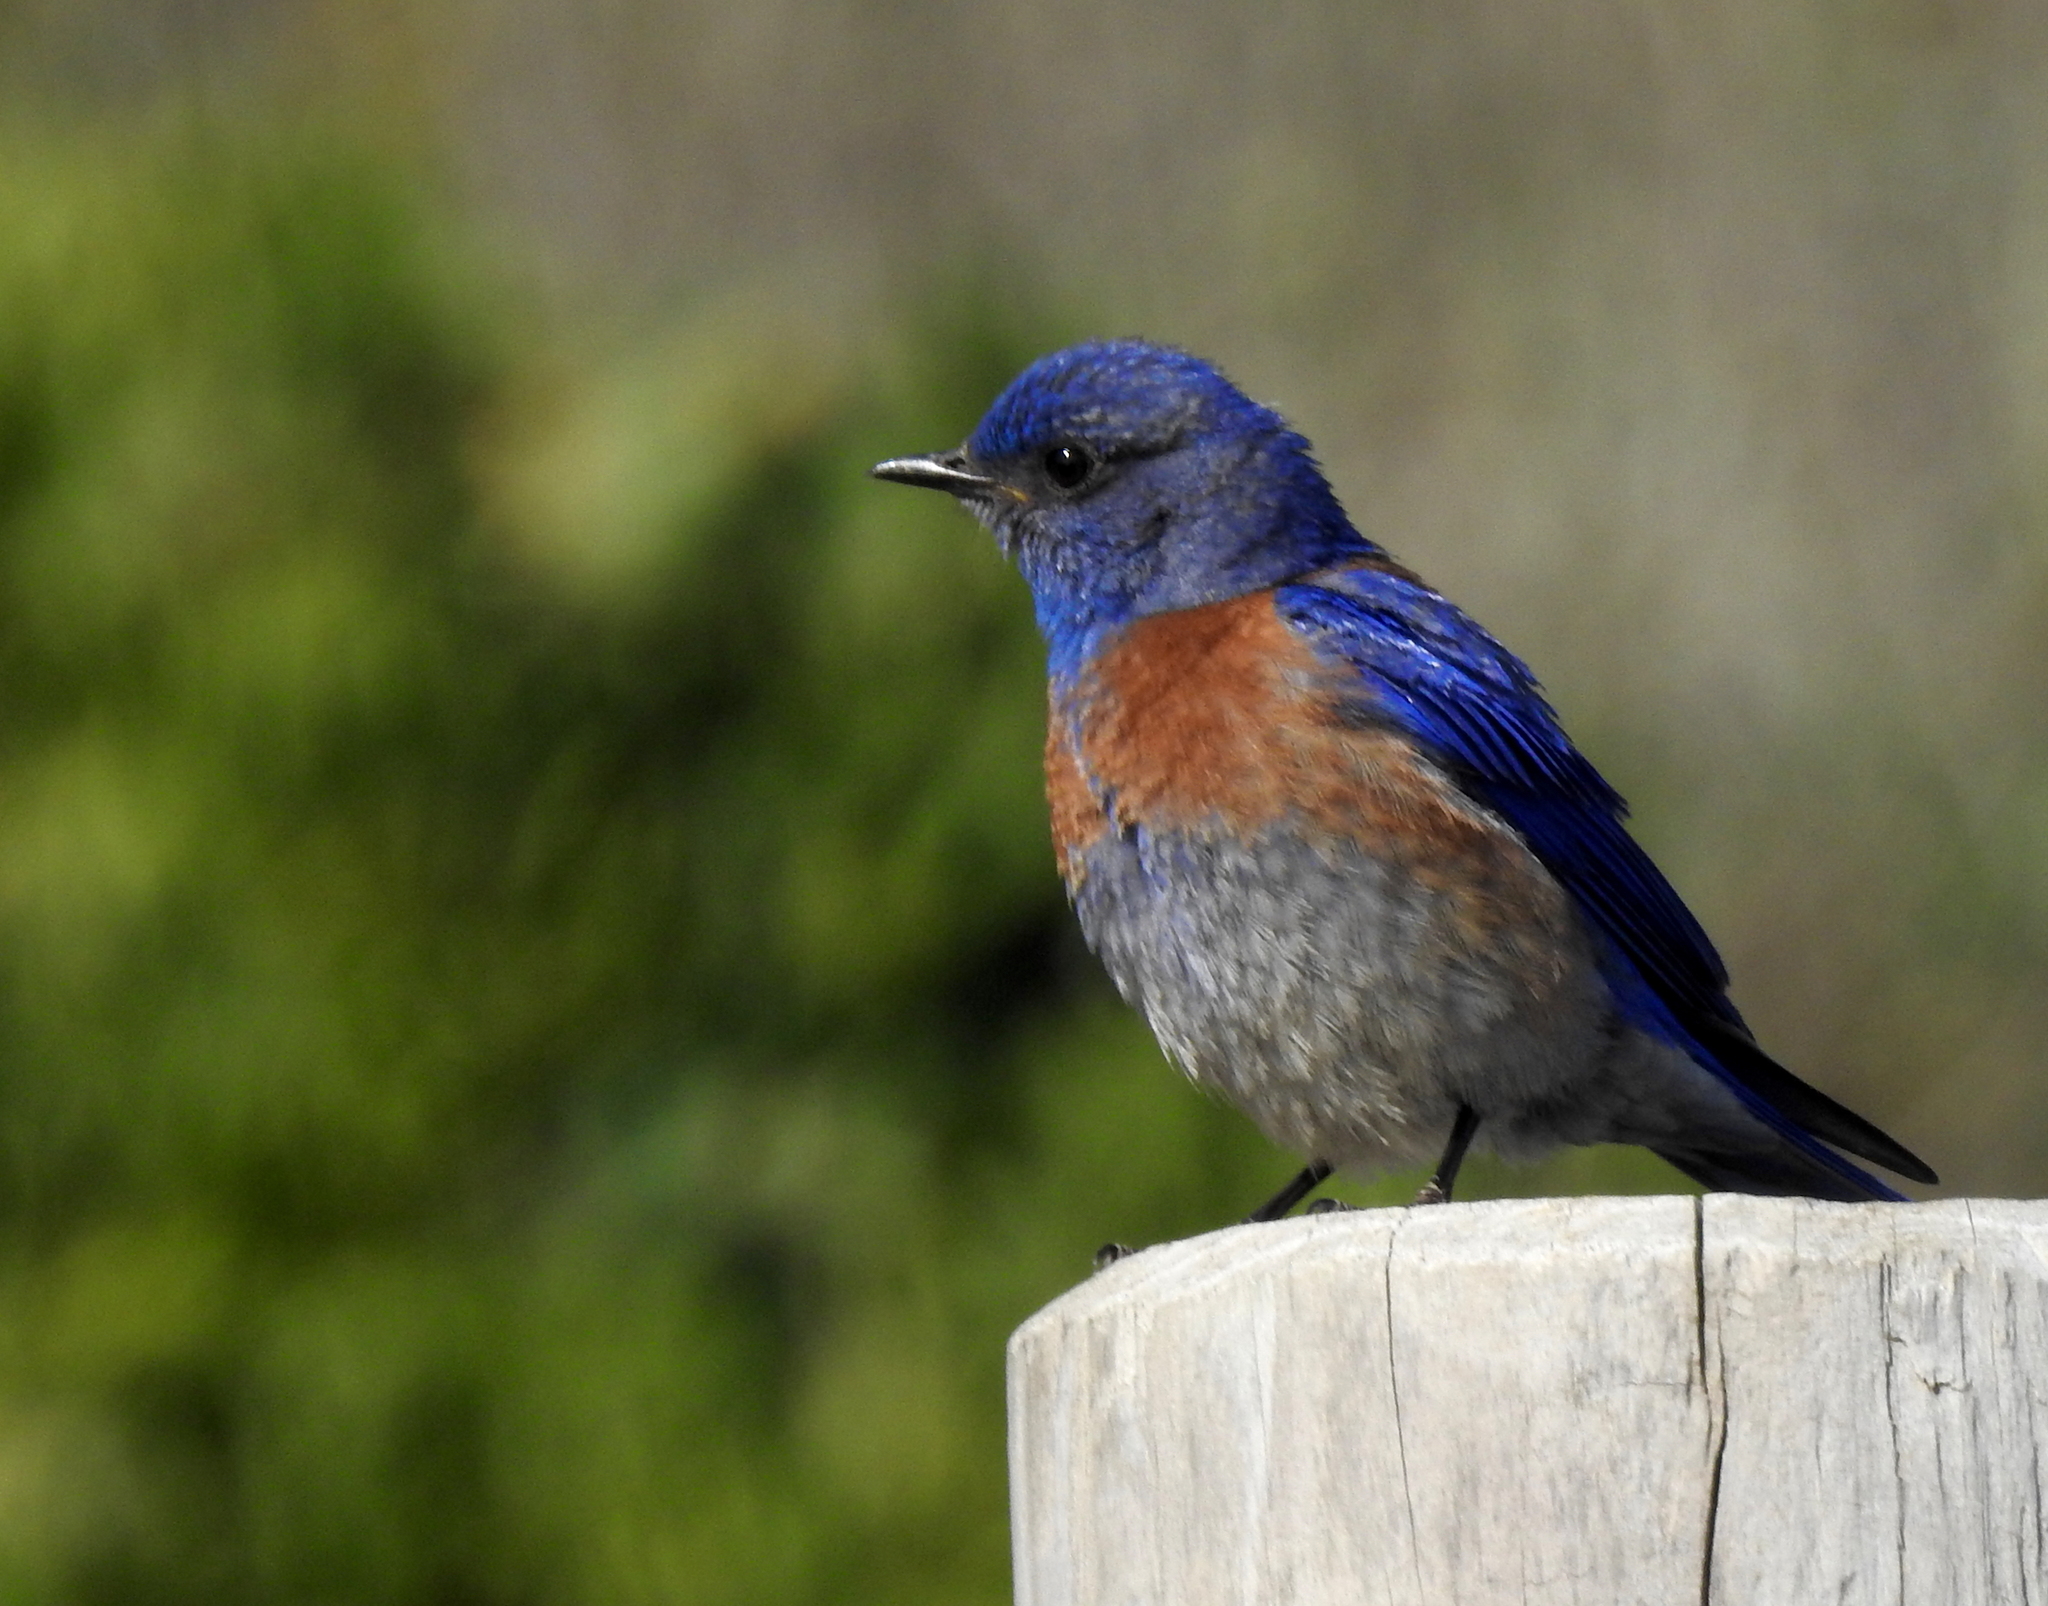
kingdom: Animalia
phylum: Chordata
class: Aves
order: Passeriformes
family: Turdidae
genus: Sialia
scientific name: Sialia mexicana
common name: Western bluebird
